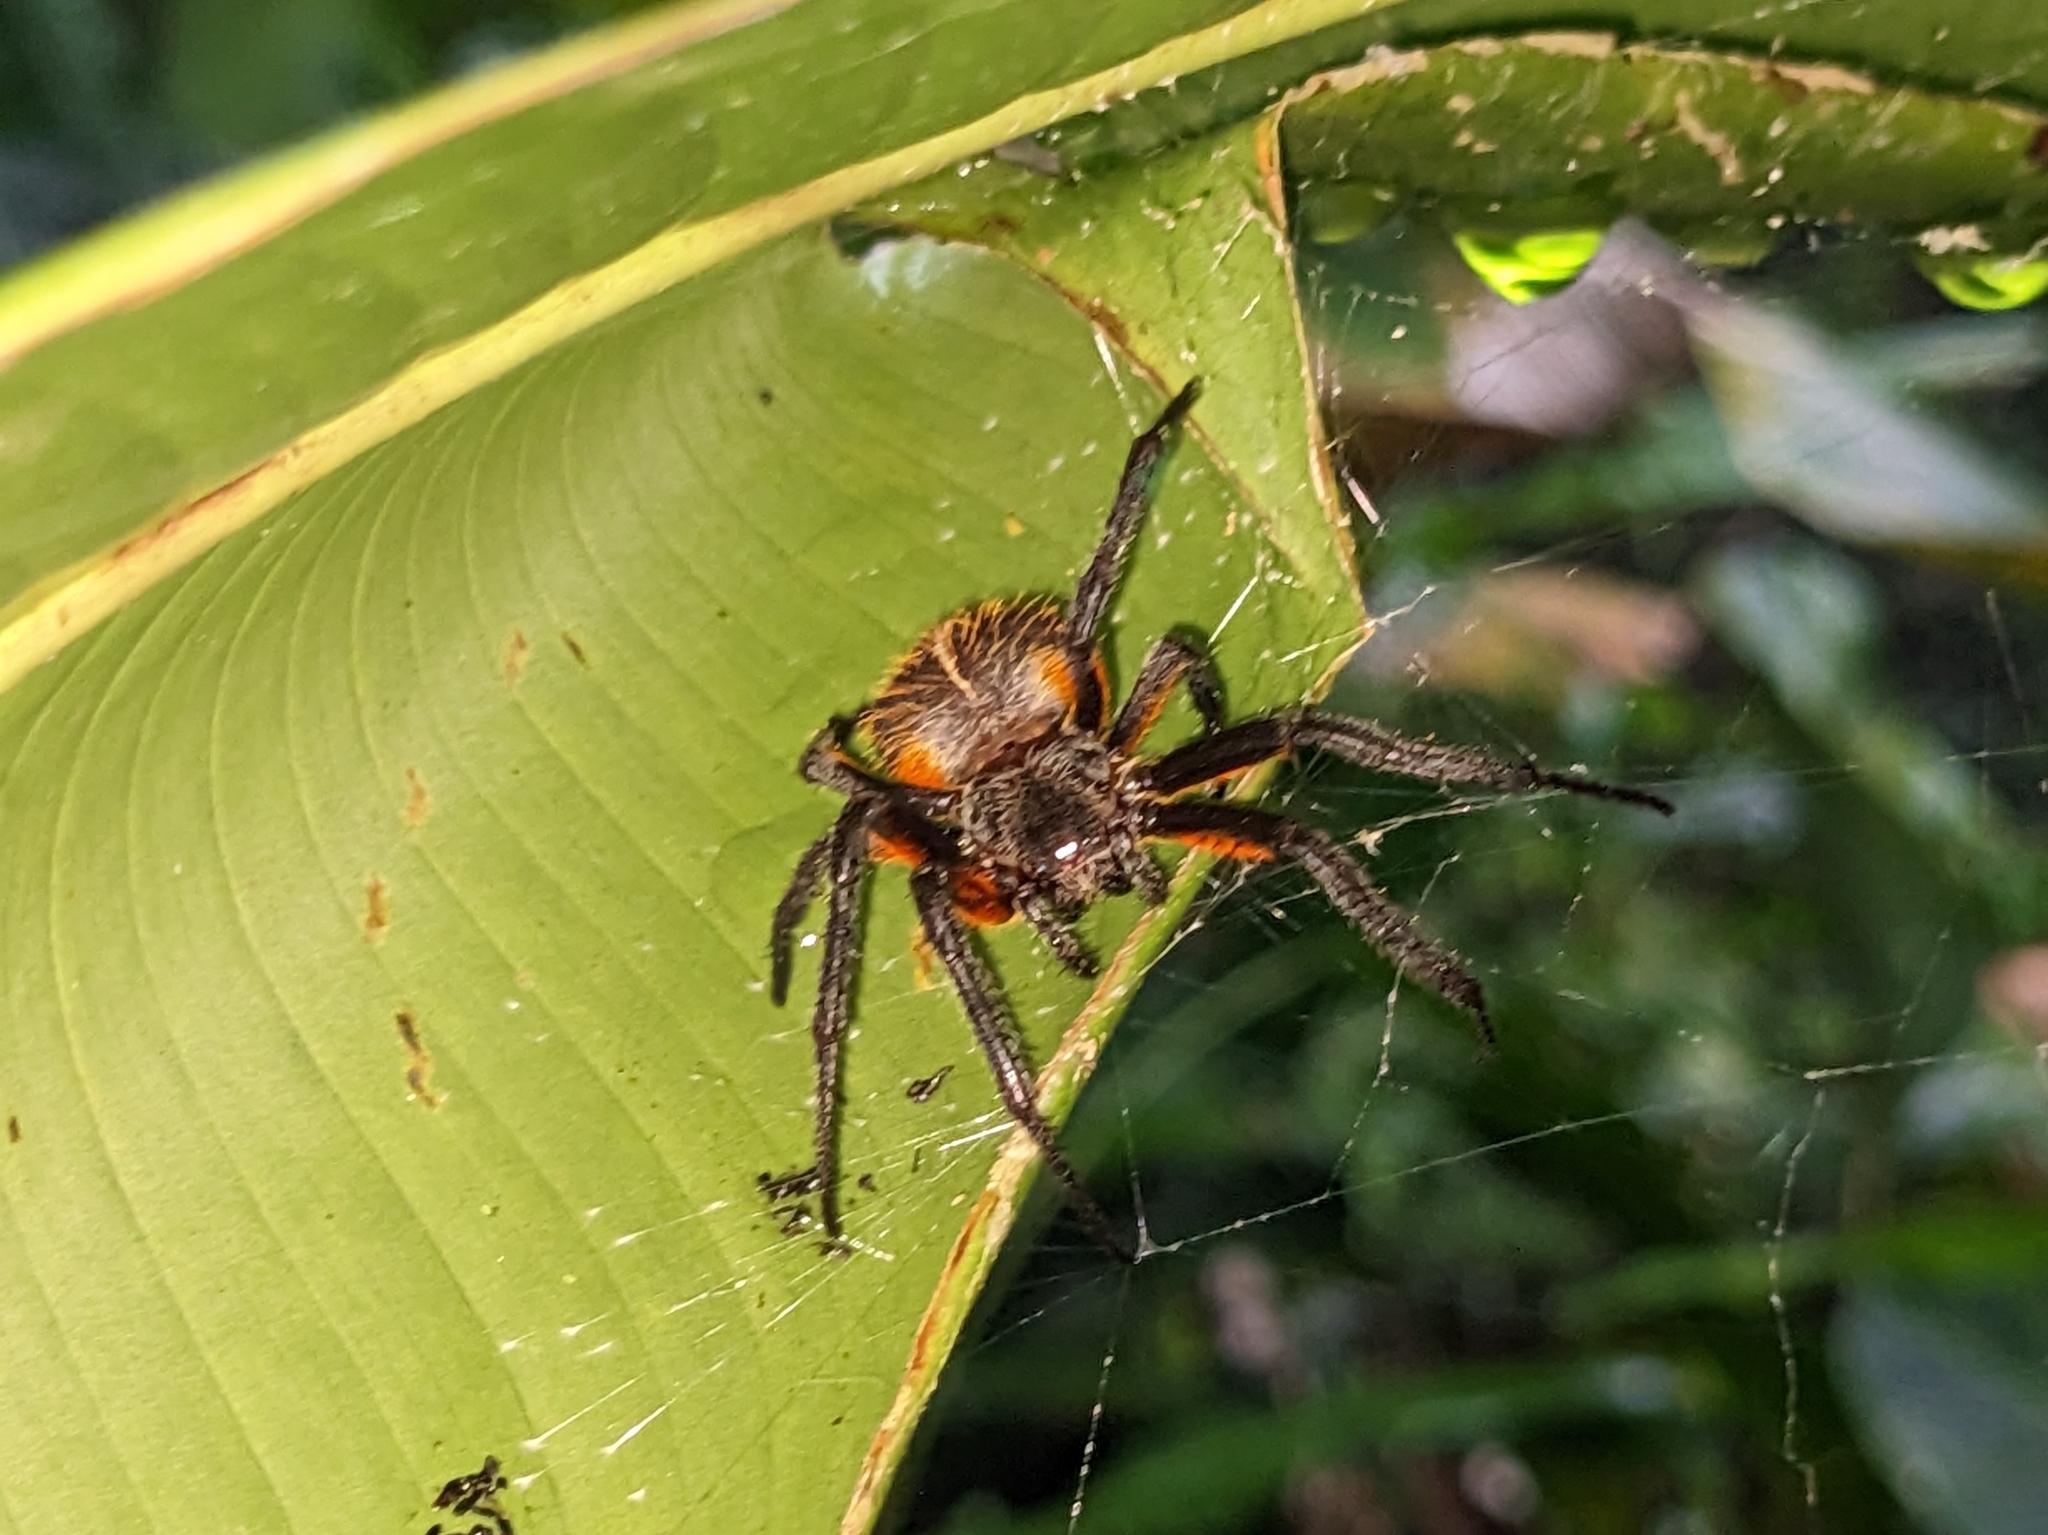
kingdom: Animalia
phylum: Arthropoda
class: Arachnida
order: Araneae
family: Araneidae
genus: Eriophora
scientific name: Eriophora fuliginea
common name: Orb weavers
